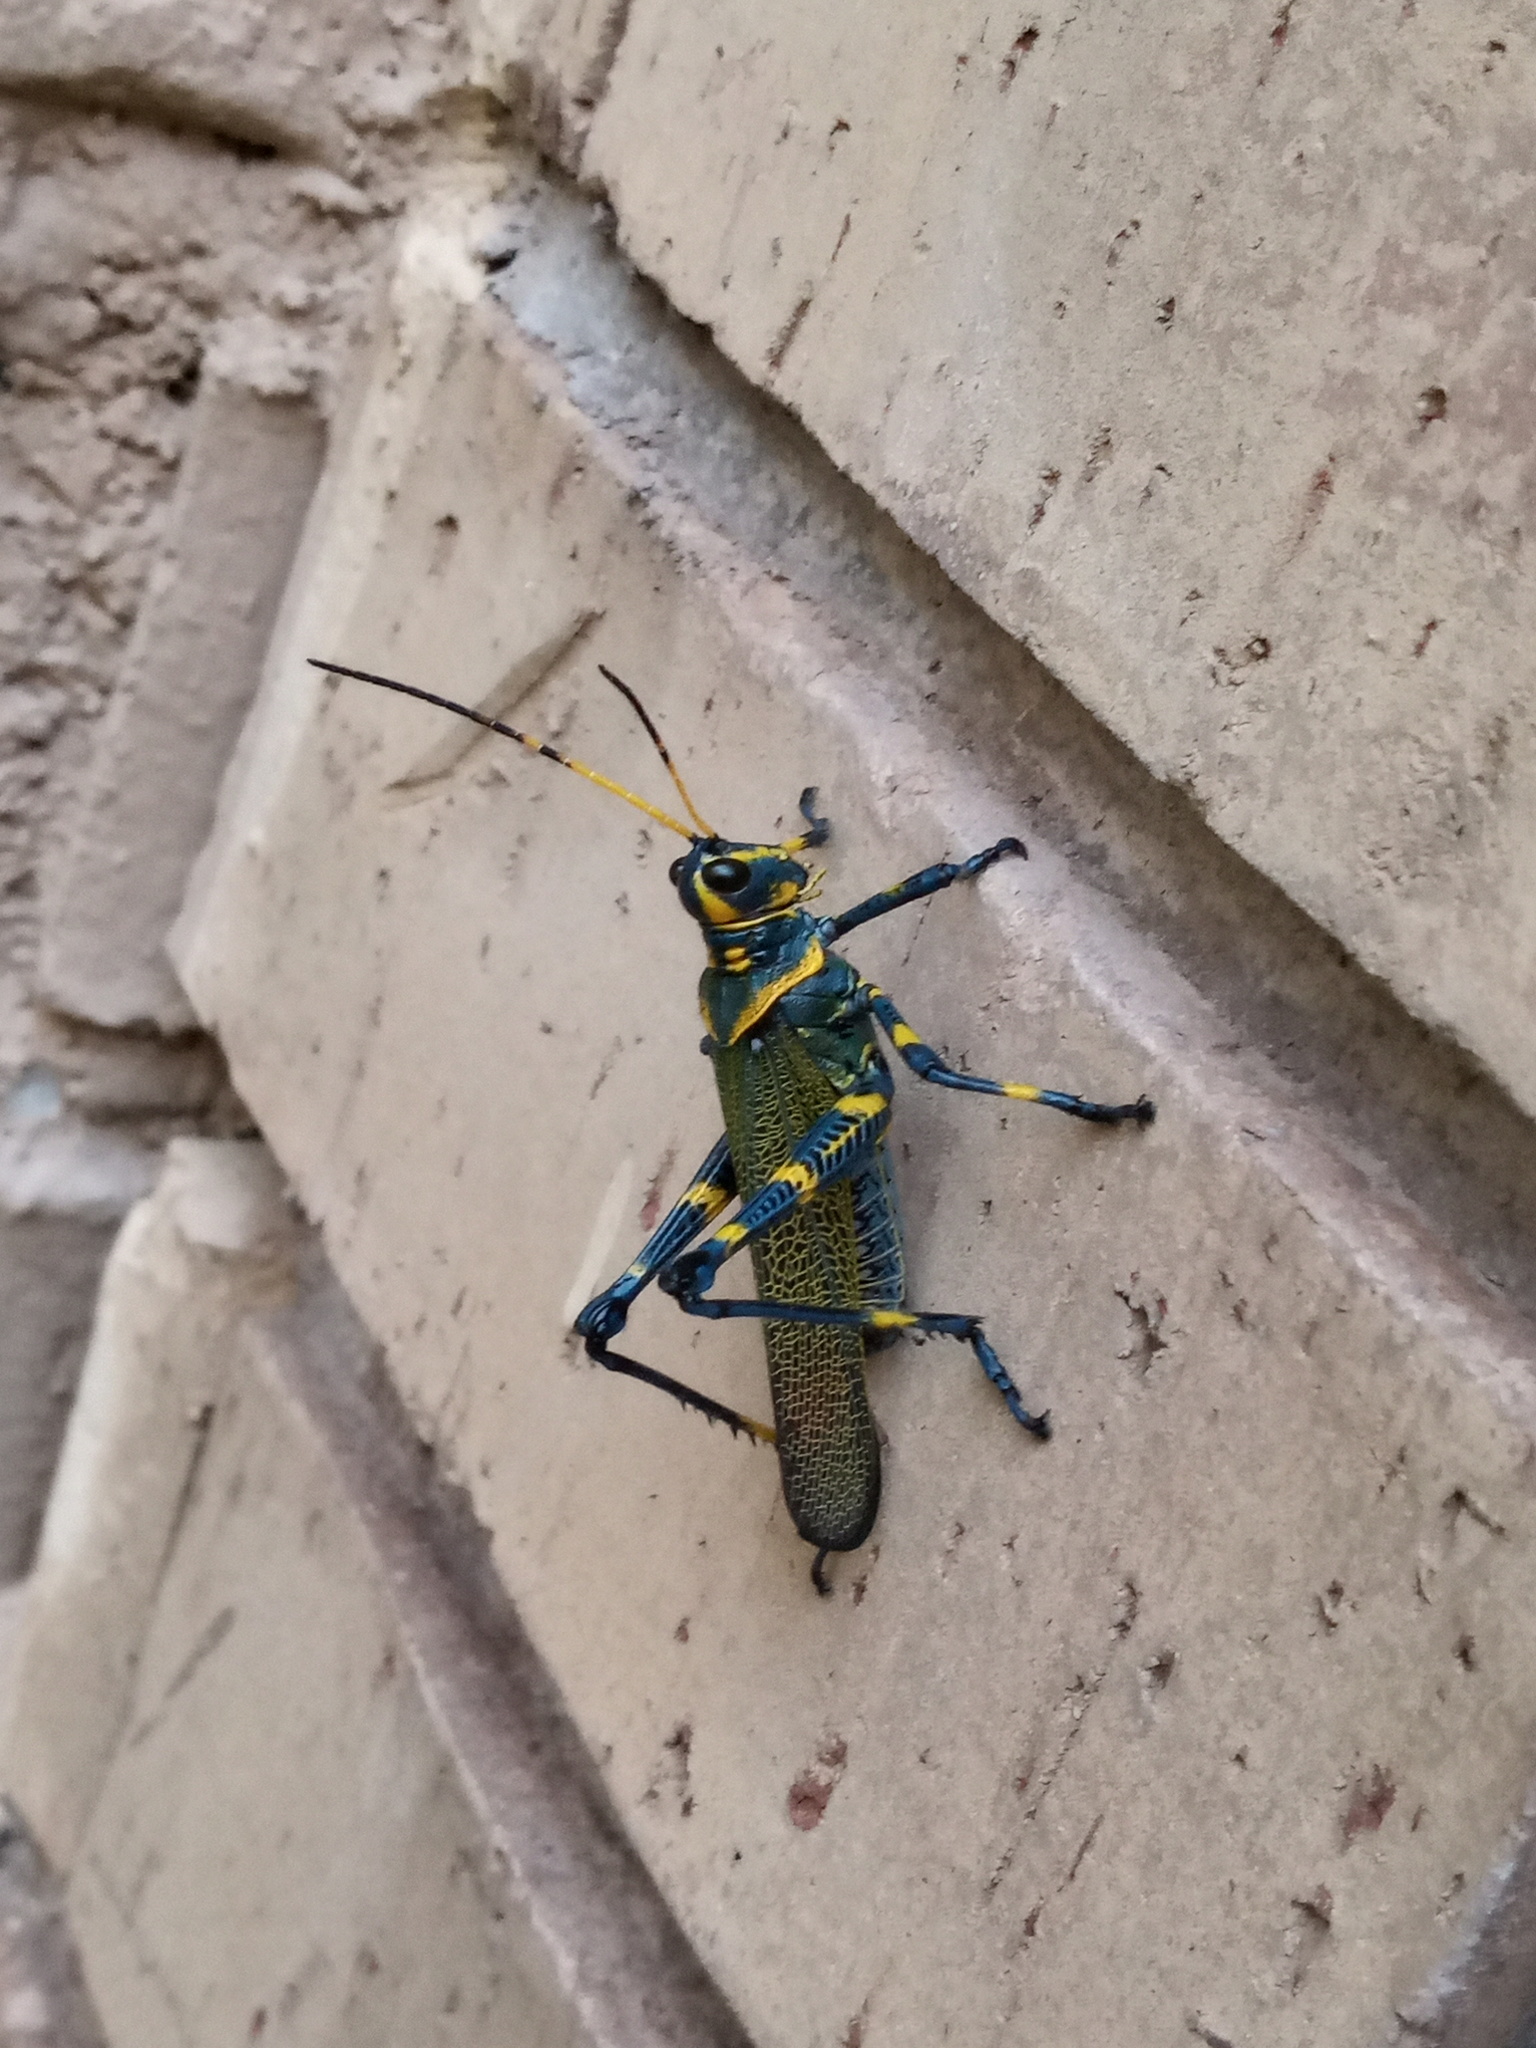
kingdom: Animalia
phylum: Arthropoda
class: Insecta
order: Orthoptera
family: Romaleidae
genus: Chromacris
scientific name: Chromacris colorata
